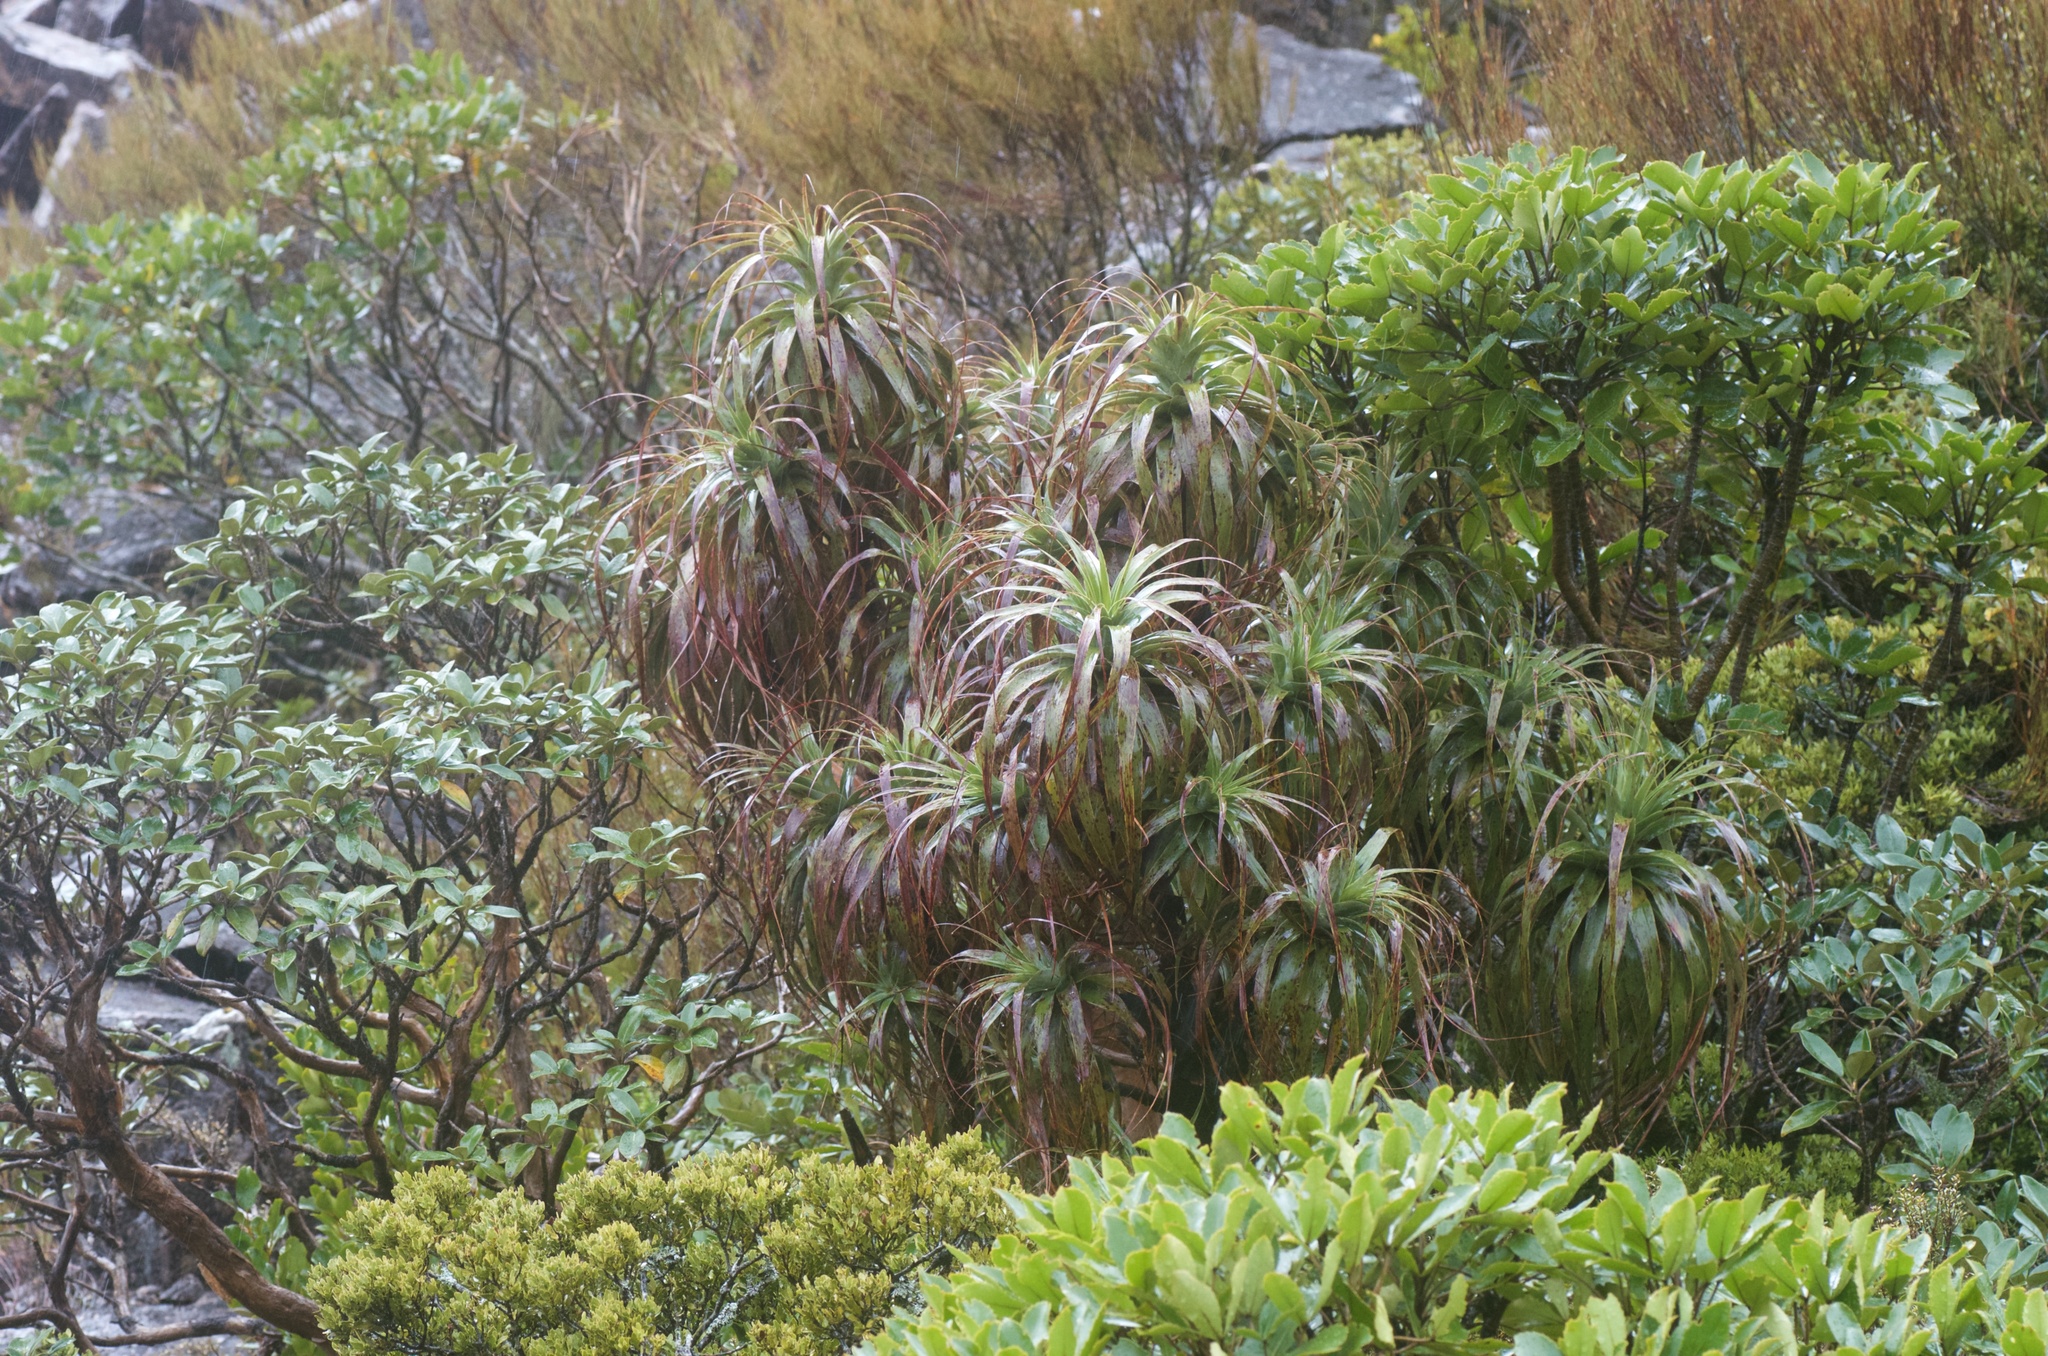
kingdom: Plantae
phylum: Tracheophyta
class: Magnoliopsida
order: Ericales
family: Ericaceae
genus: Dracophyllum
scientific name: Dracophyllum traversii
